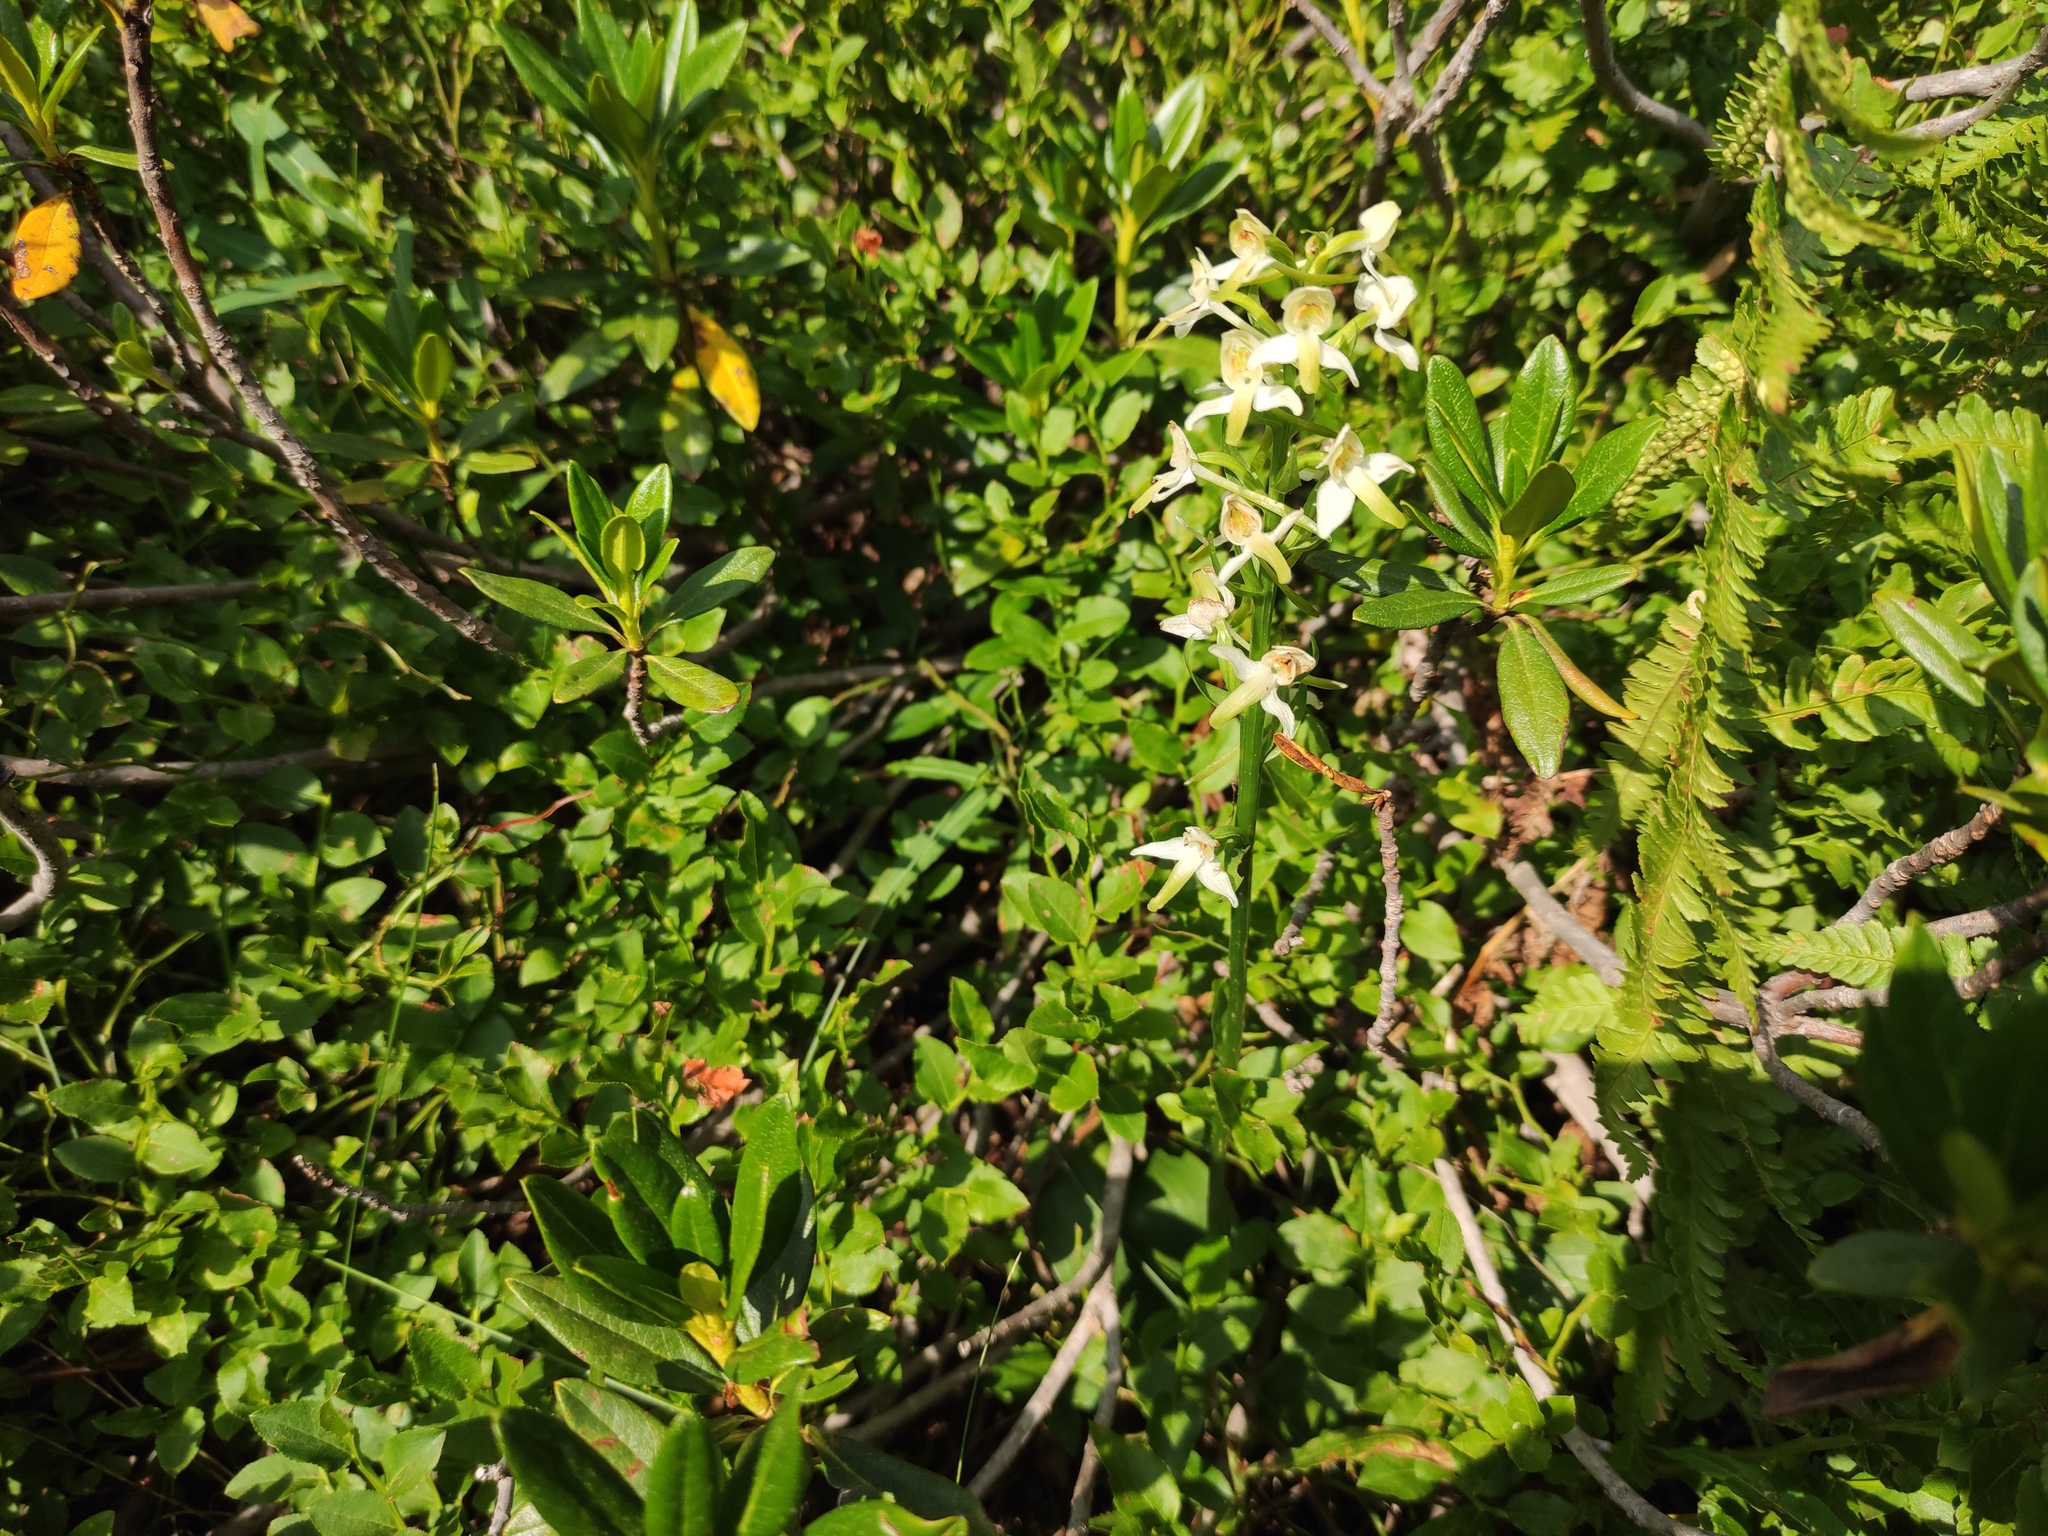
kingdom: Plantae
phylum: Tracheophyta
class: Liliopsida
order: Asparagales
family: Orchidaceae
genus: Platanthera
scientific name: Platanthera chlorantha
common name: Greater butterfly-orchid
